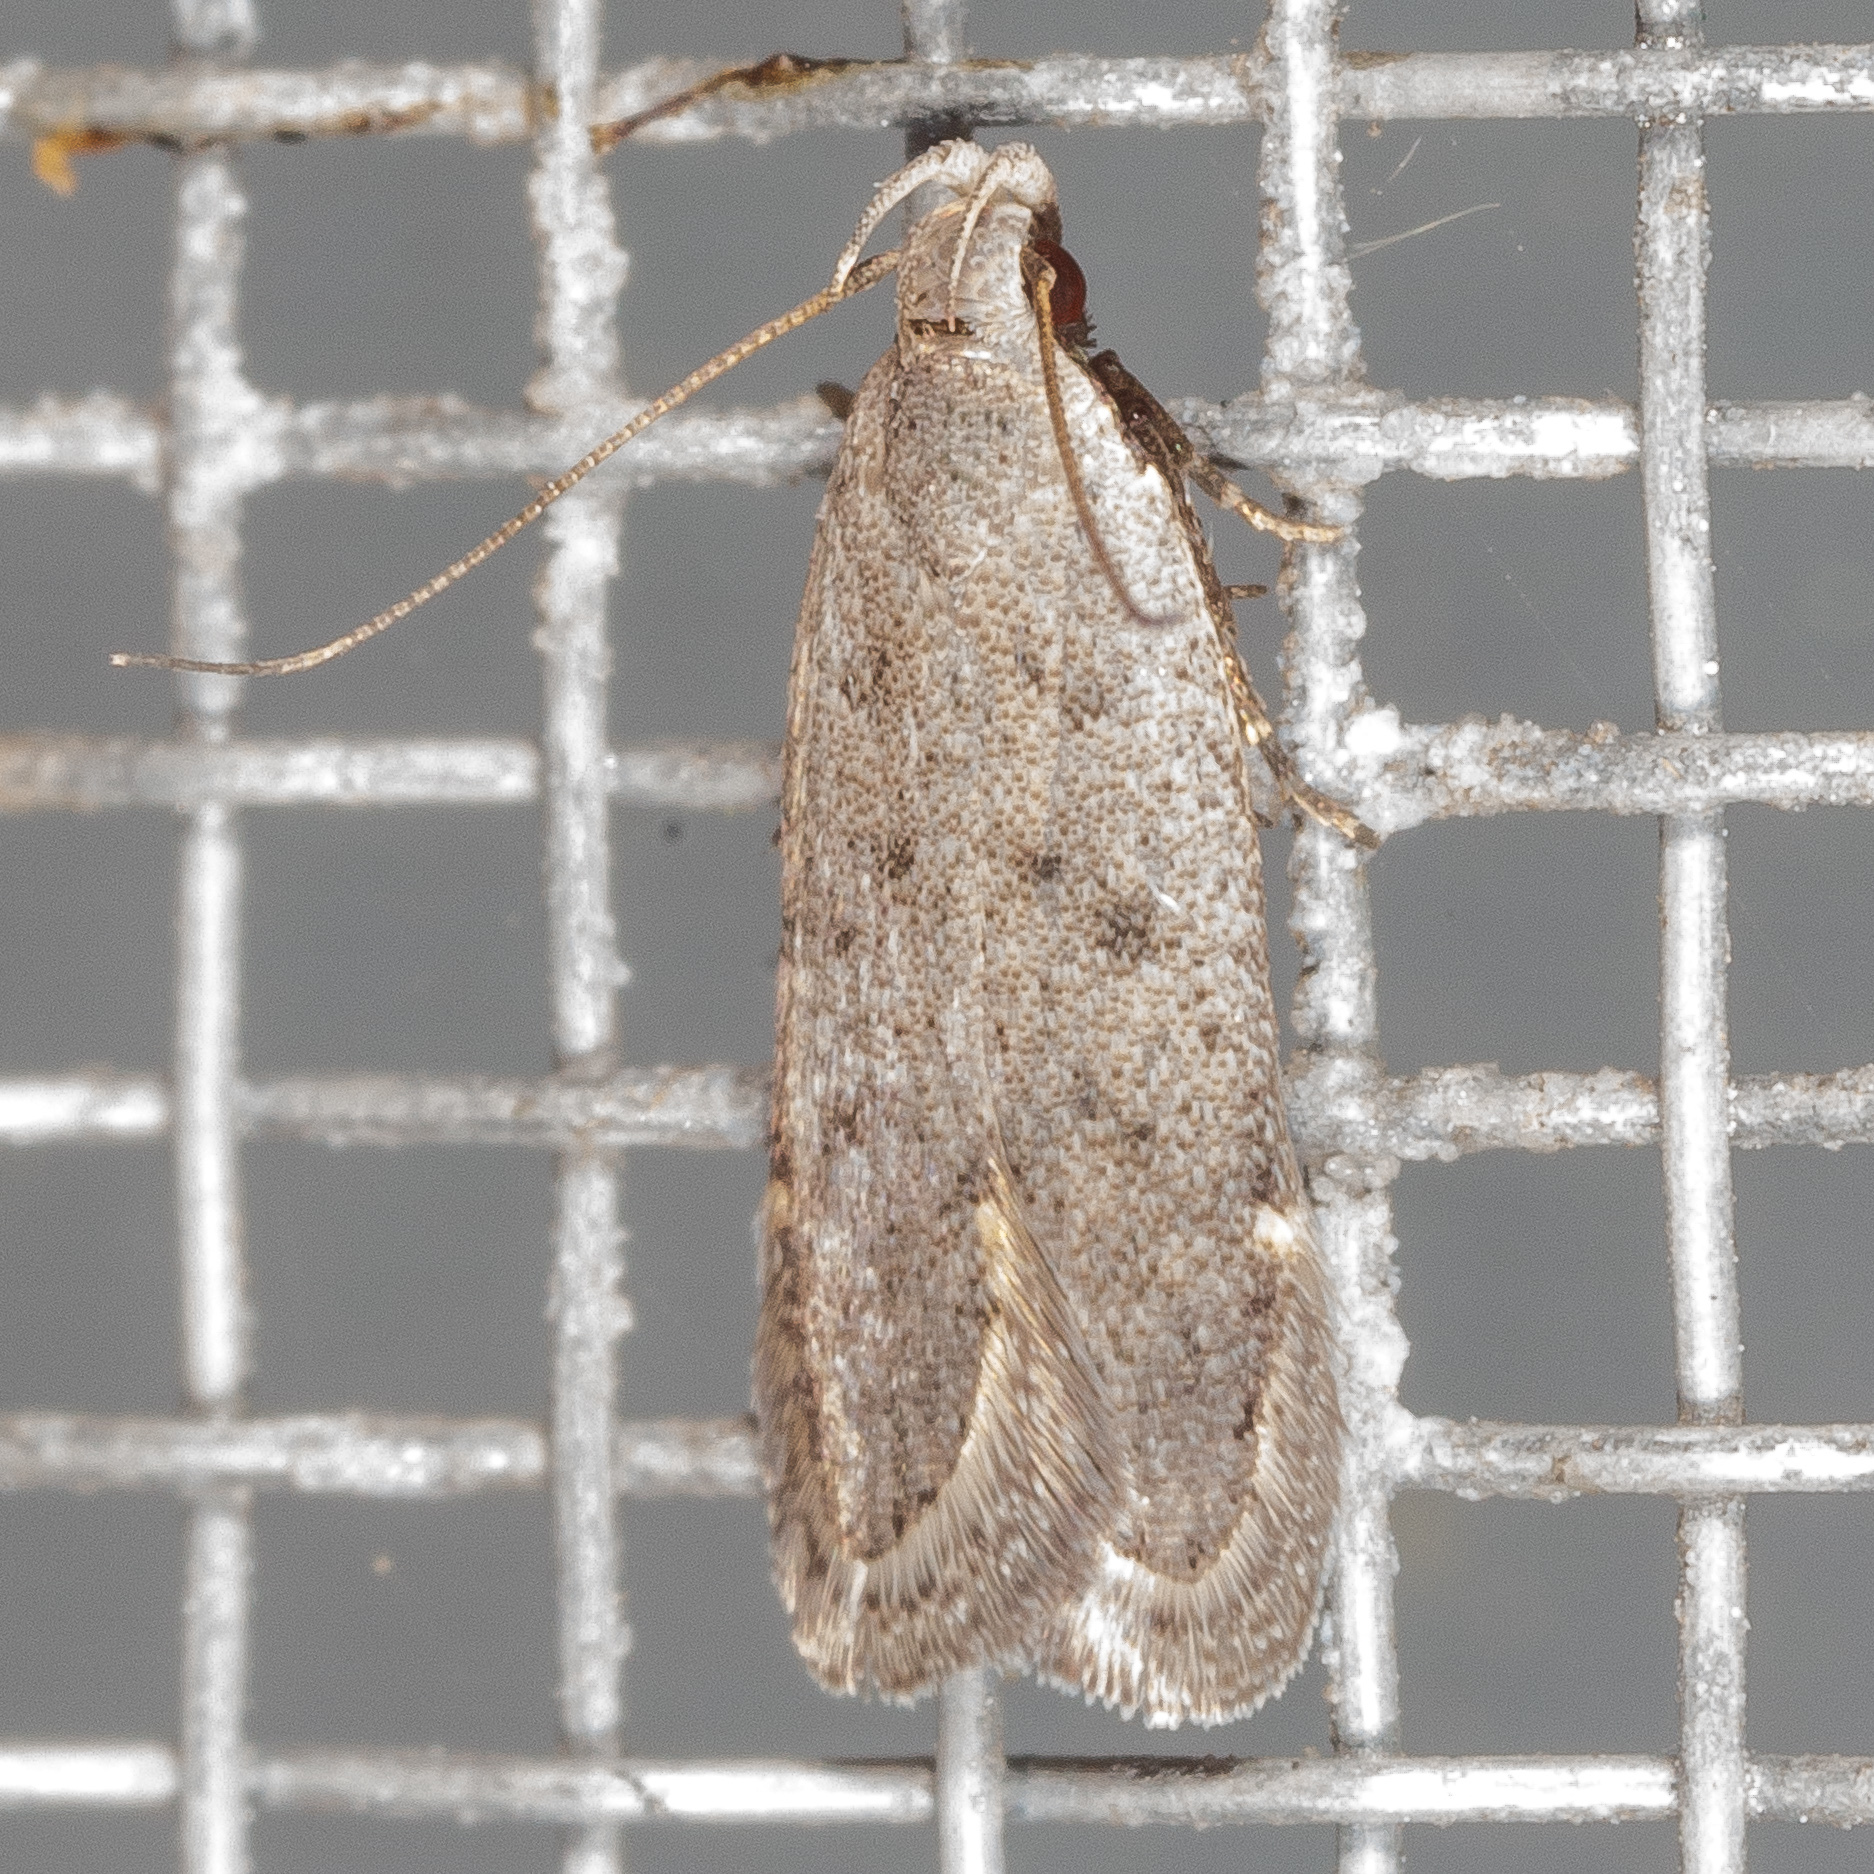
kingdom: Animalia
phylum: Arthropoda
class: Insecta
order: Lepidoptera
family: Gelechiidae
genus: Anacampsis
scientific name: Anacampsis comparanda
